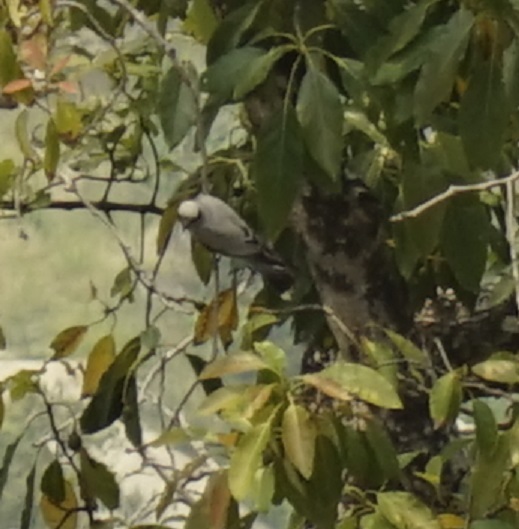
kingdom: Animalia
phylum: Chordata
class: Aves
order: Passeriformes
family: Campephagidae
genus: Coracina
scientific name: Coracina novaehollandiae
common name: Black-faced cuckooshrike
